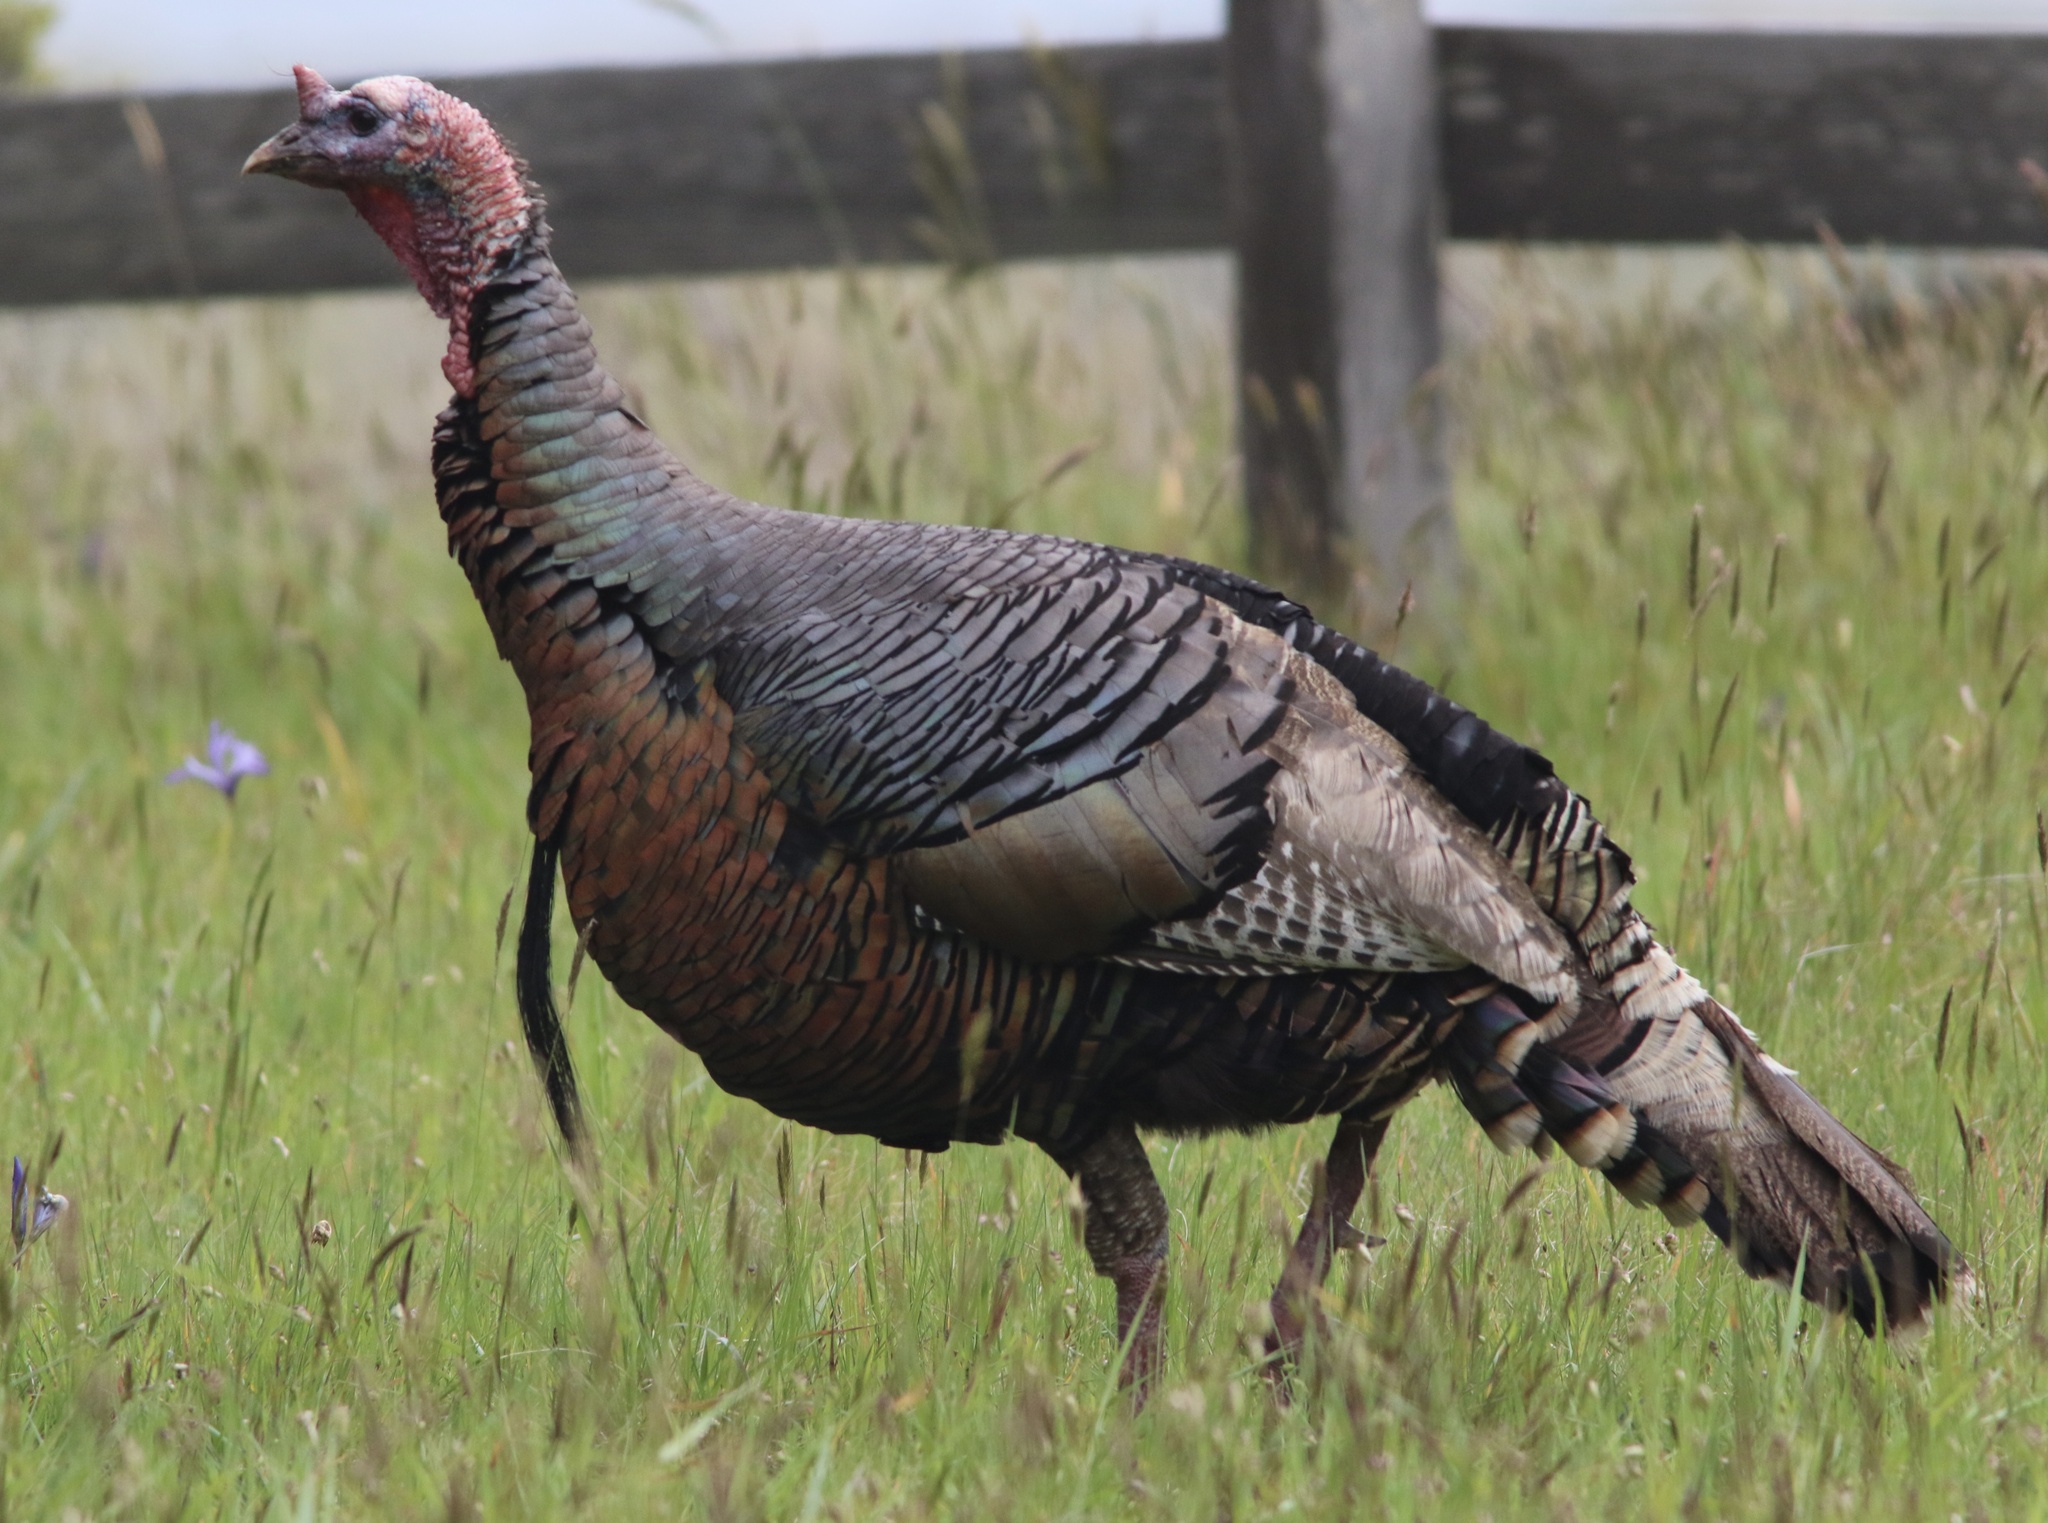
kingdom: Animalia
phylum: Chordata
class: Aves
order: Galliformes
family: Phasianidae
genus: Meleagris
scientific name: Meleagris gallopavo
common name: Wild turkey
